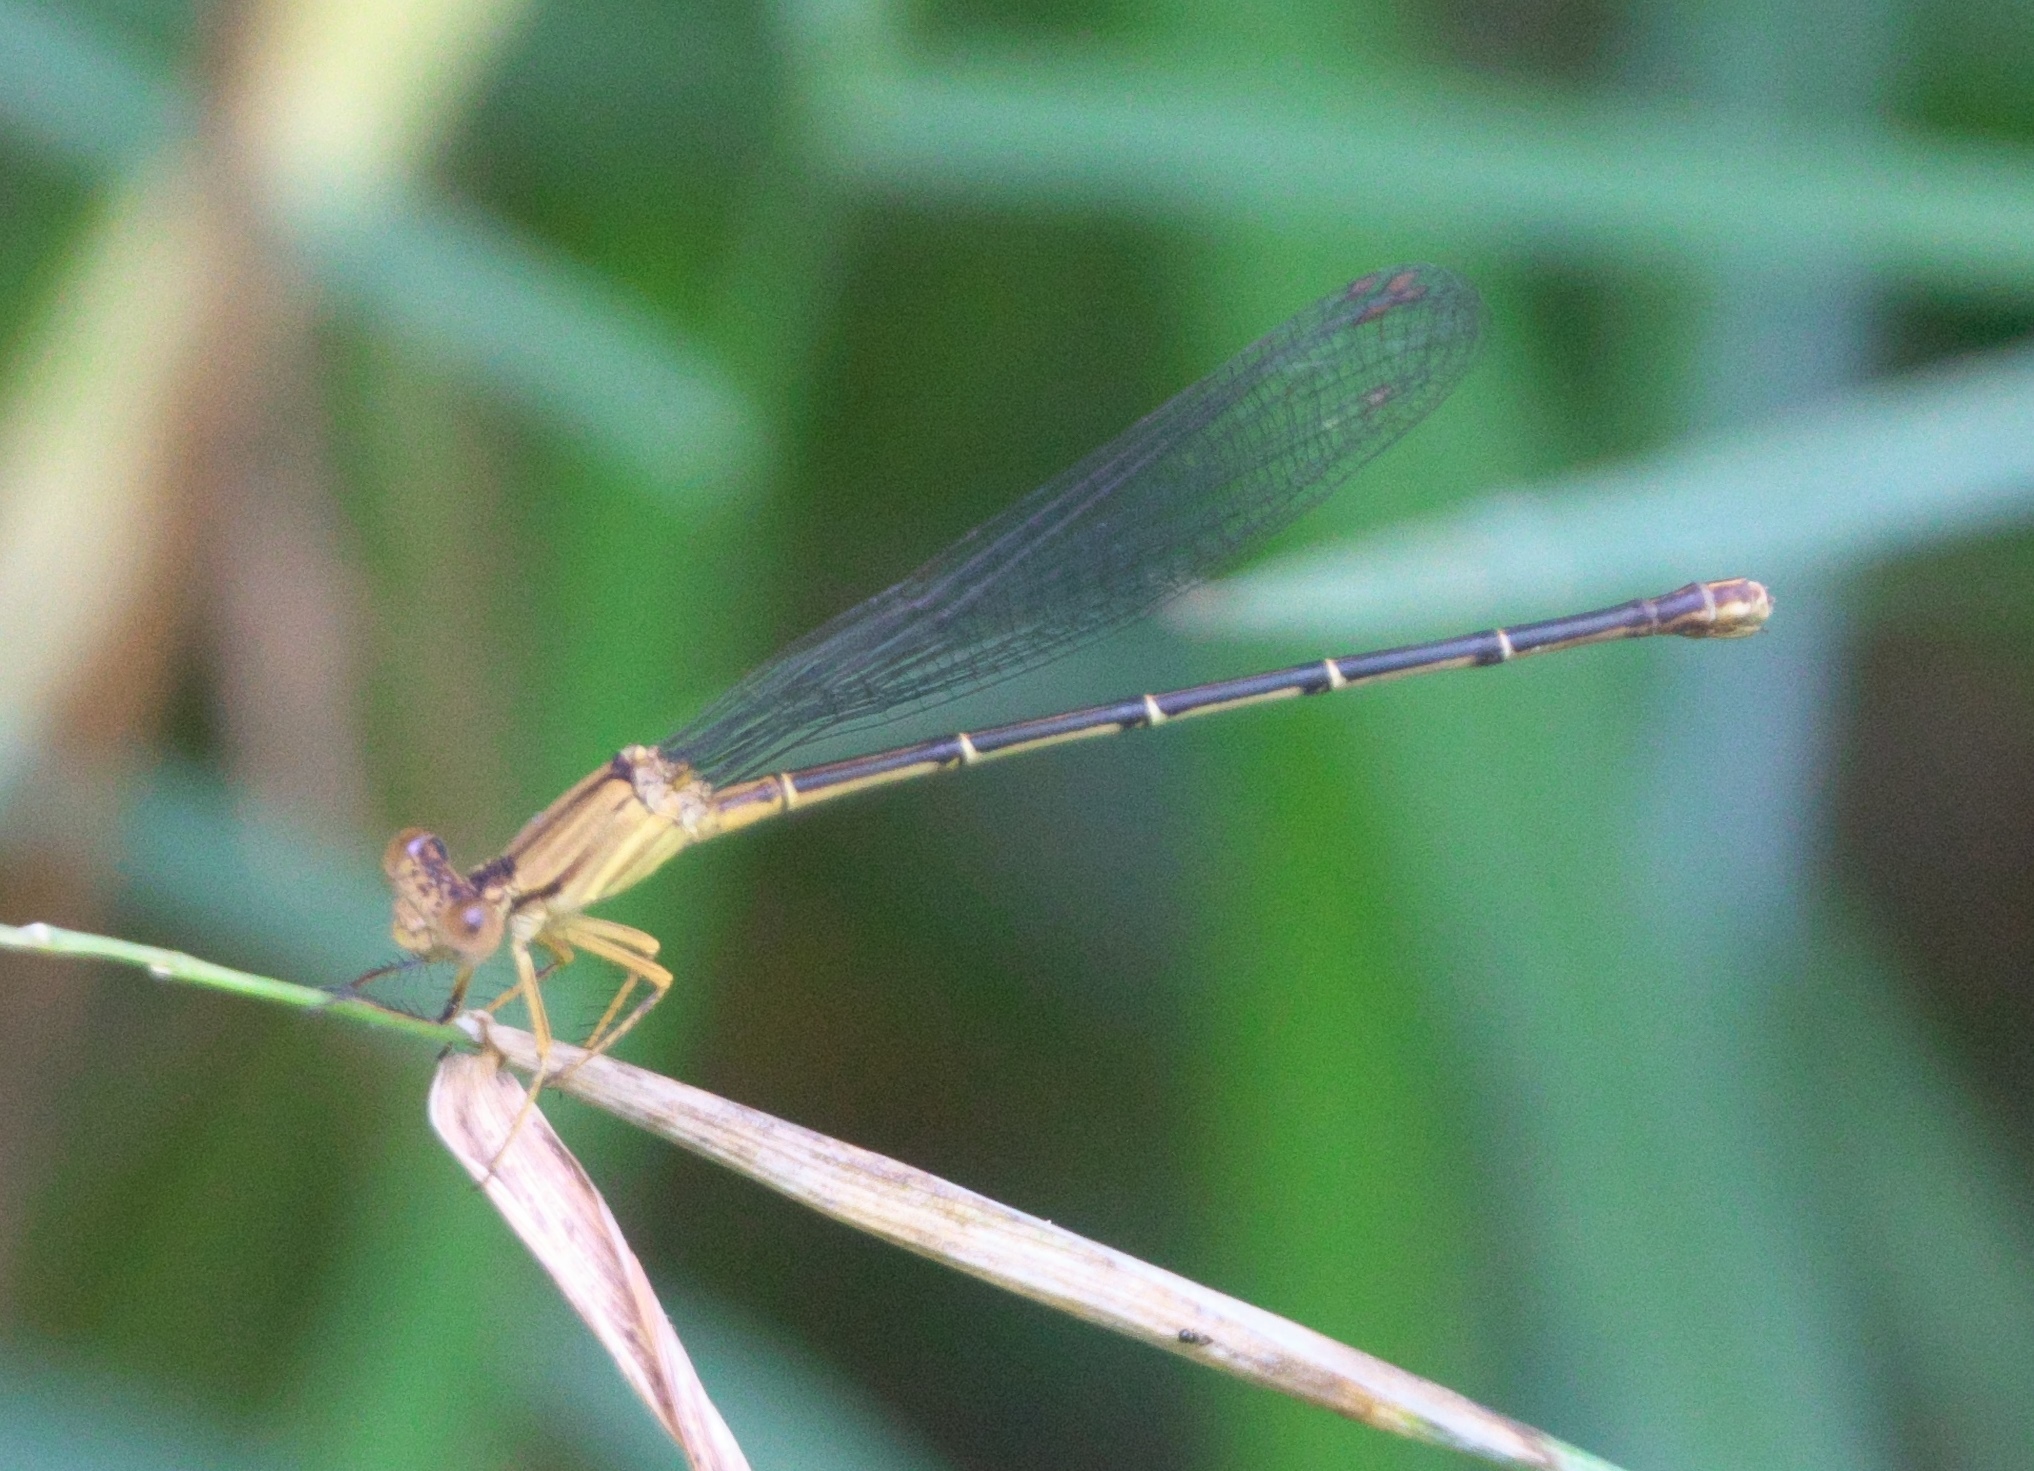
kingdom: Animalia
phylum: Arthropoda
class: Insecta
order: Odonata
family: Coenagrionidae
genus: Argia
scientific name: Argia apicalis
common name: Blue-fronted dancer
